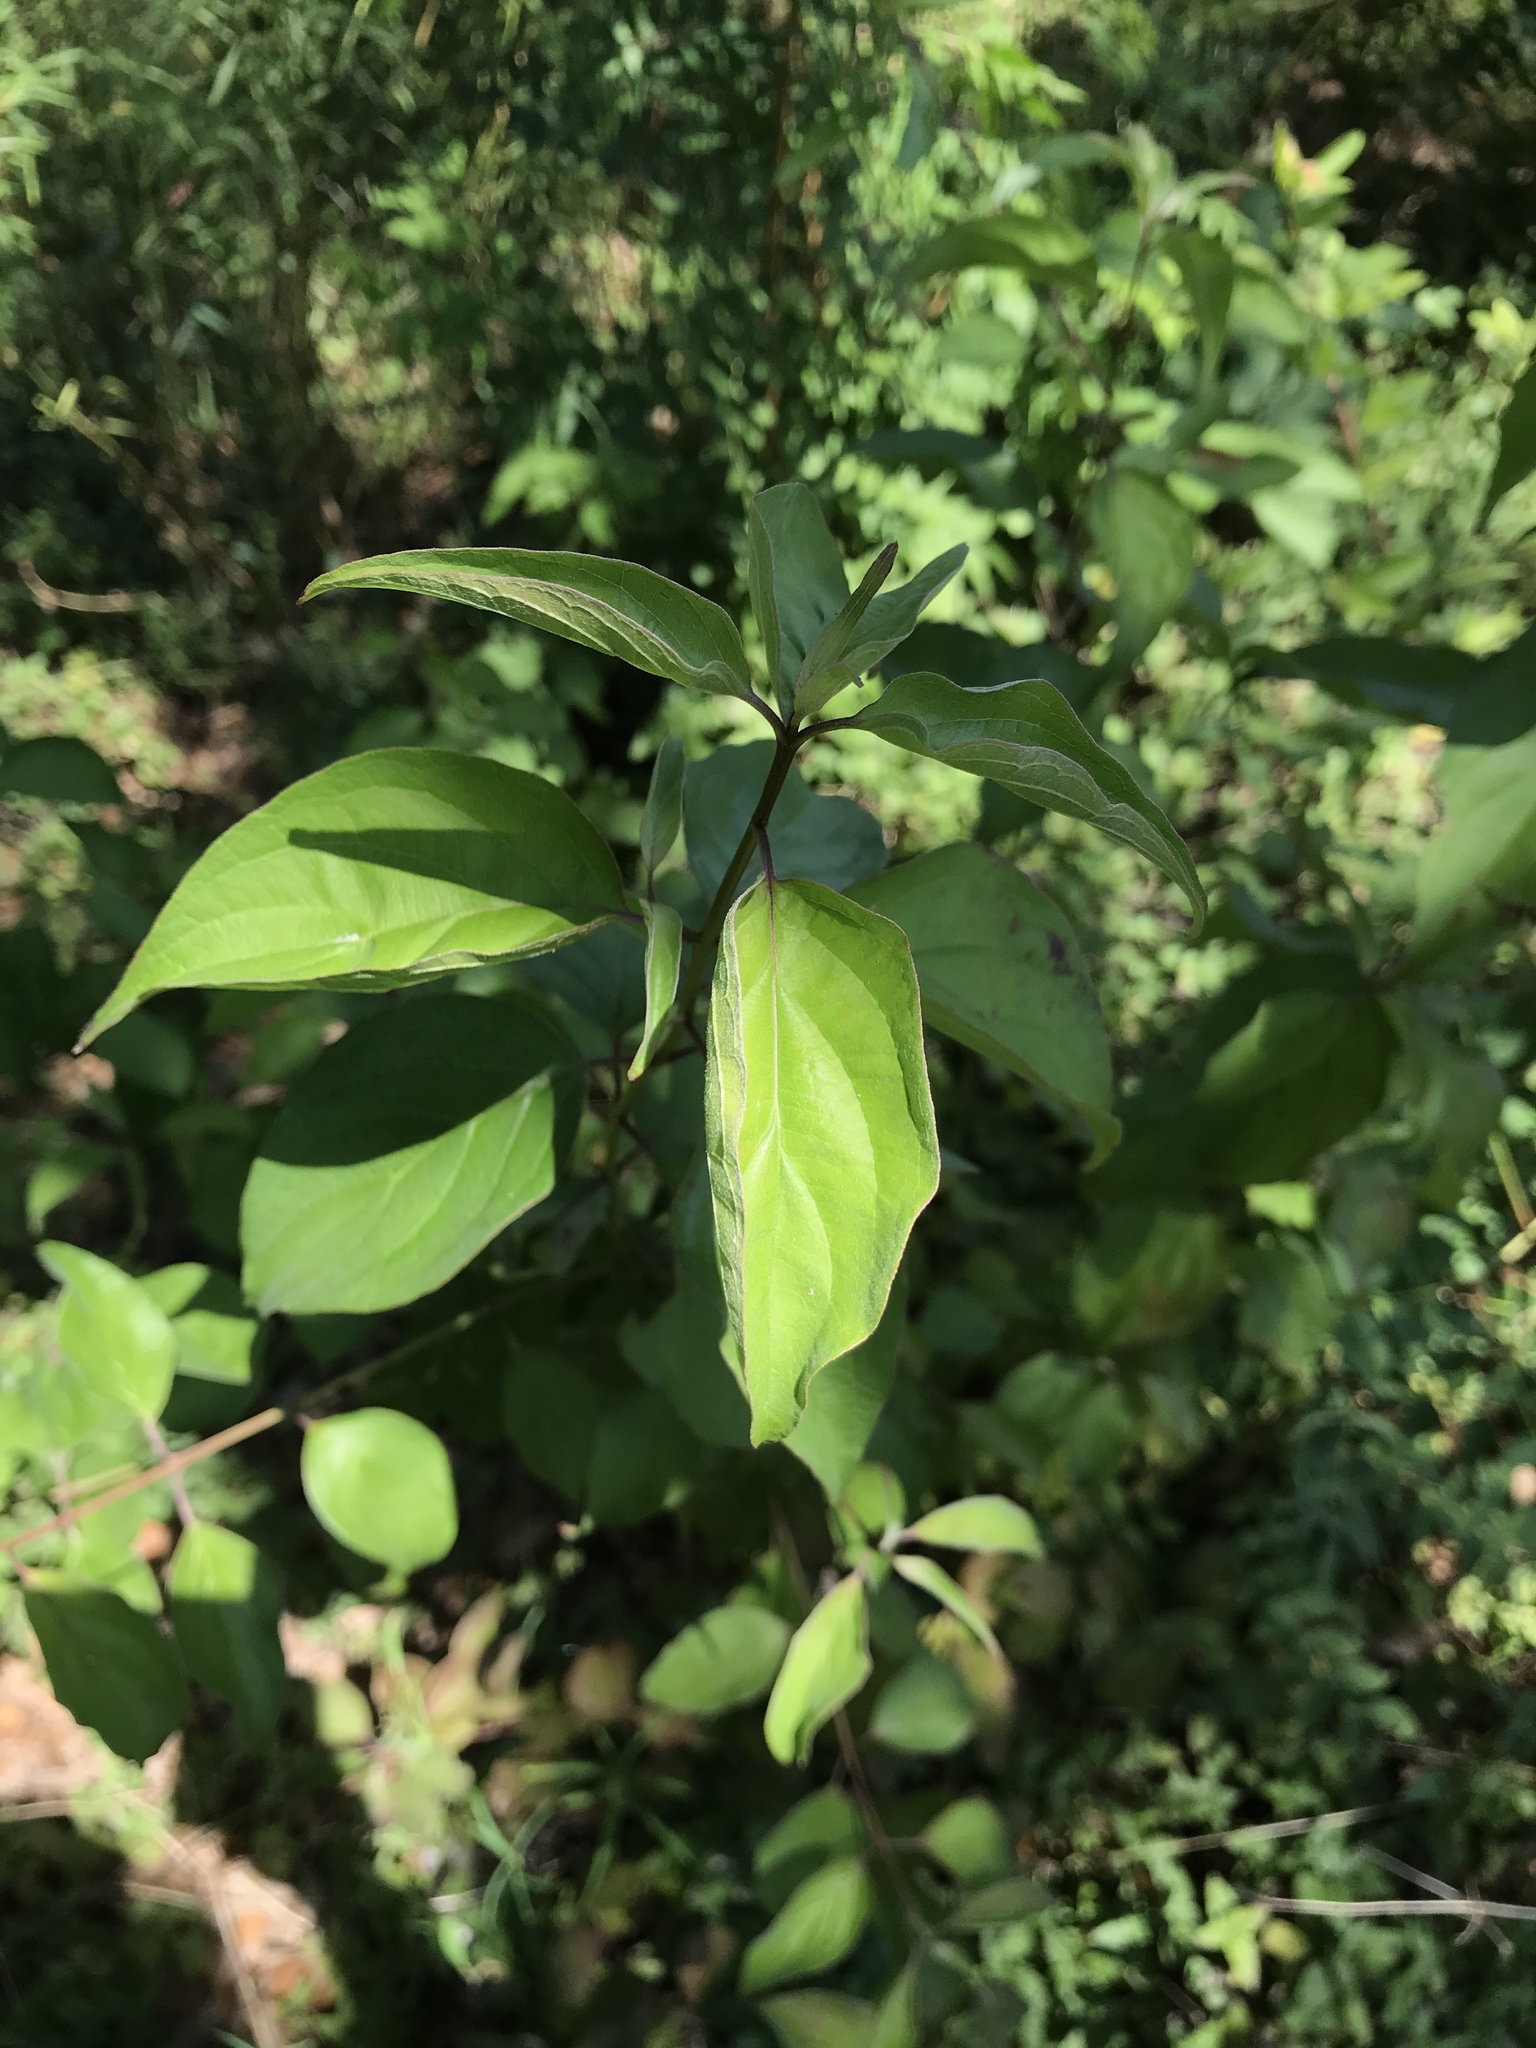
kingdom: Plantae
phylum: Tracheophyta
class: Magnoliopsida
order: Cornales
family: Cornaceae
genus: Cornus
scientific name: Cornus drummondii
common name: Rough-leaf dogwood
